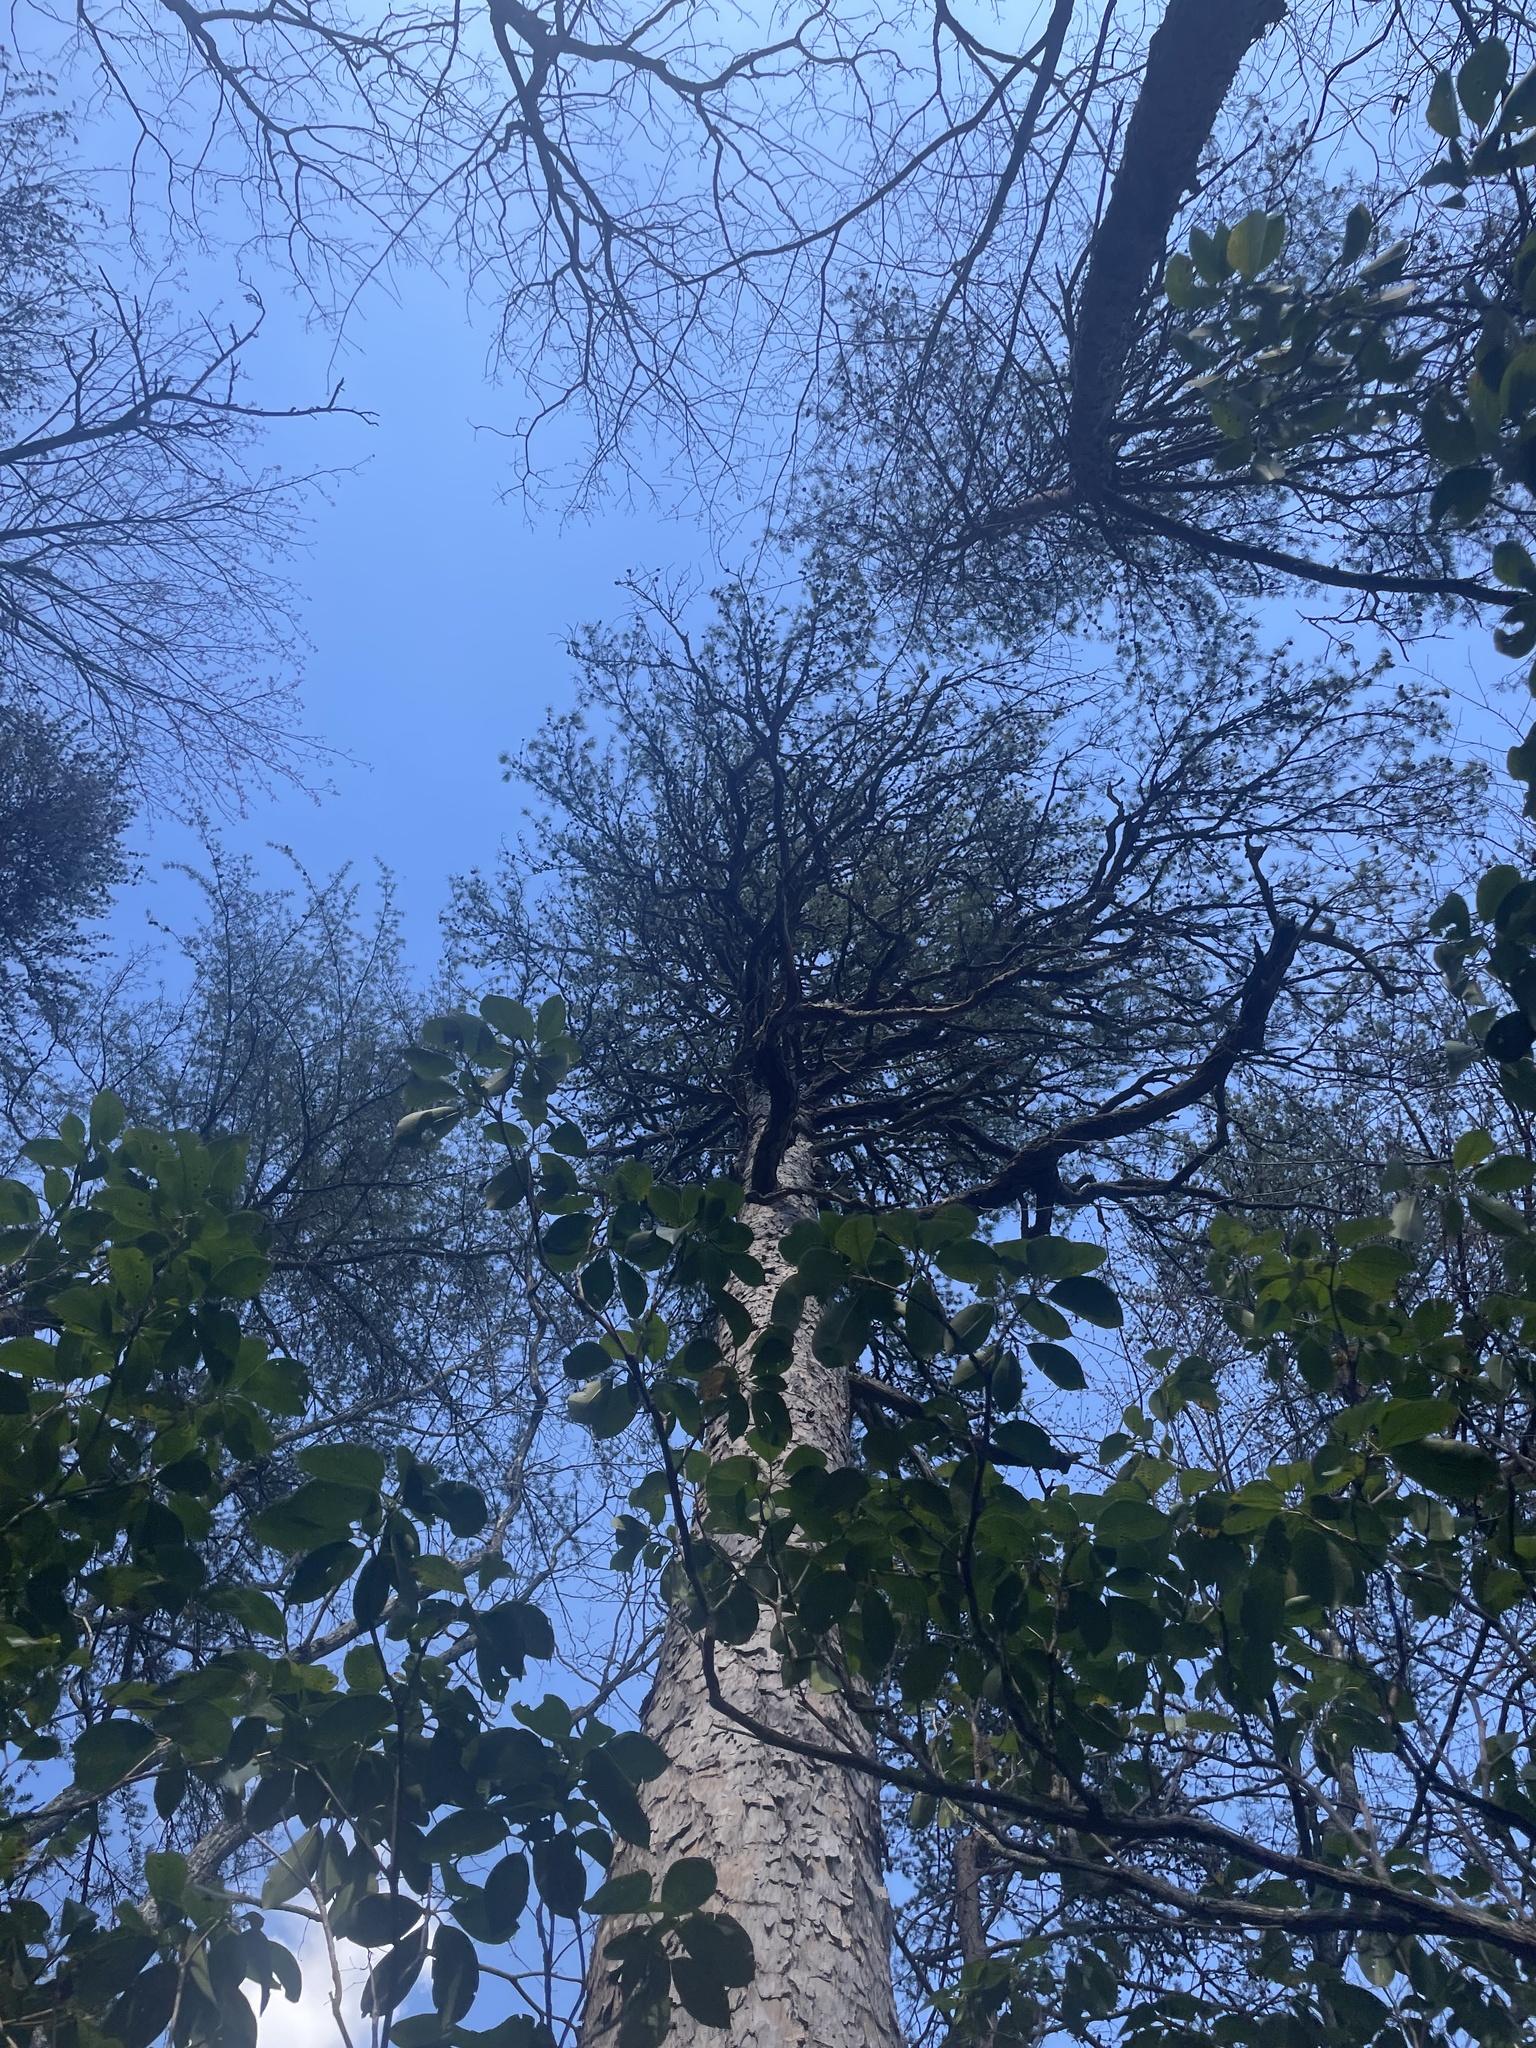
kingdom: Plantae
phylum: Tracheophyta
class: Pinopsida
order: Pinales
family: Pinaceae
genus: Pinus
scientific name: Pinus echinata
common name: Shortleaf pine
